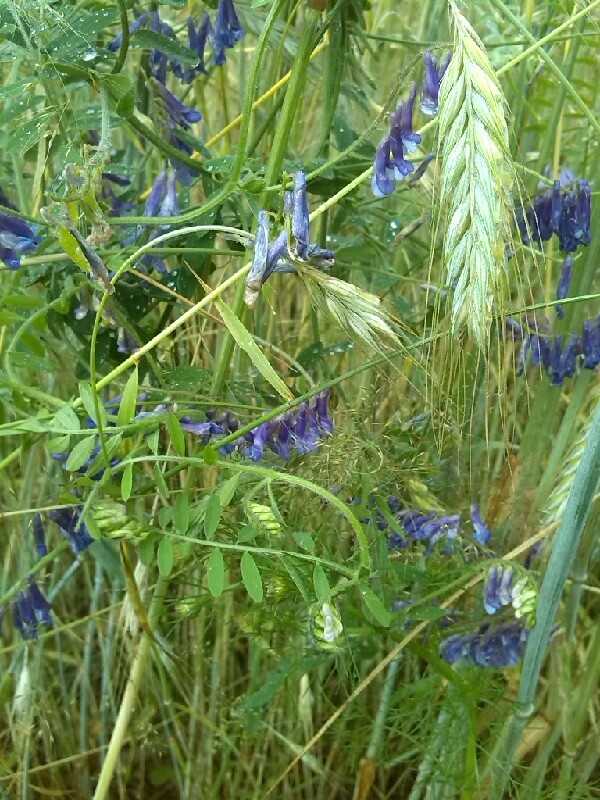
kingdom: Plantae
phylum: Tracheophyta
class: Magnoliopsida
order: Fabales
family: Fabaceae
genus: Vicia
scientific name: Vicia villosa
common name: Fodder vetch
